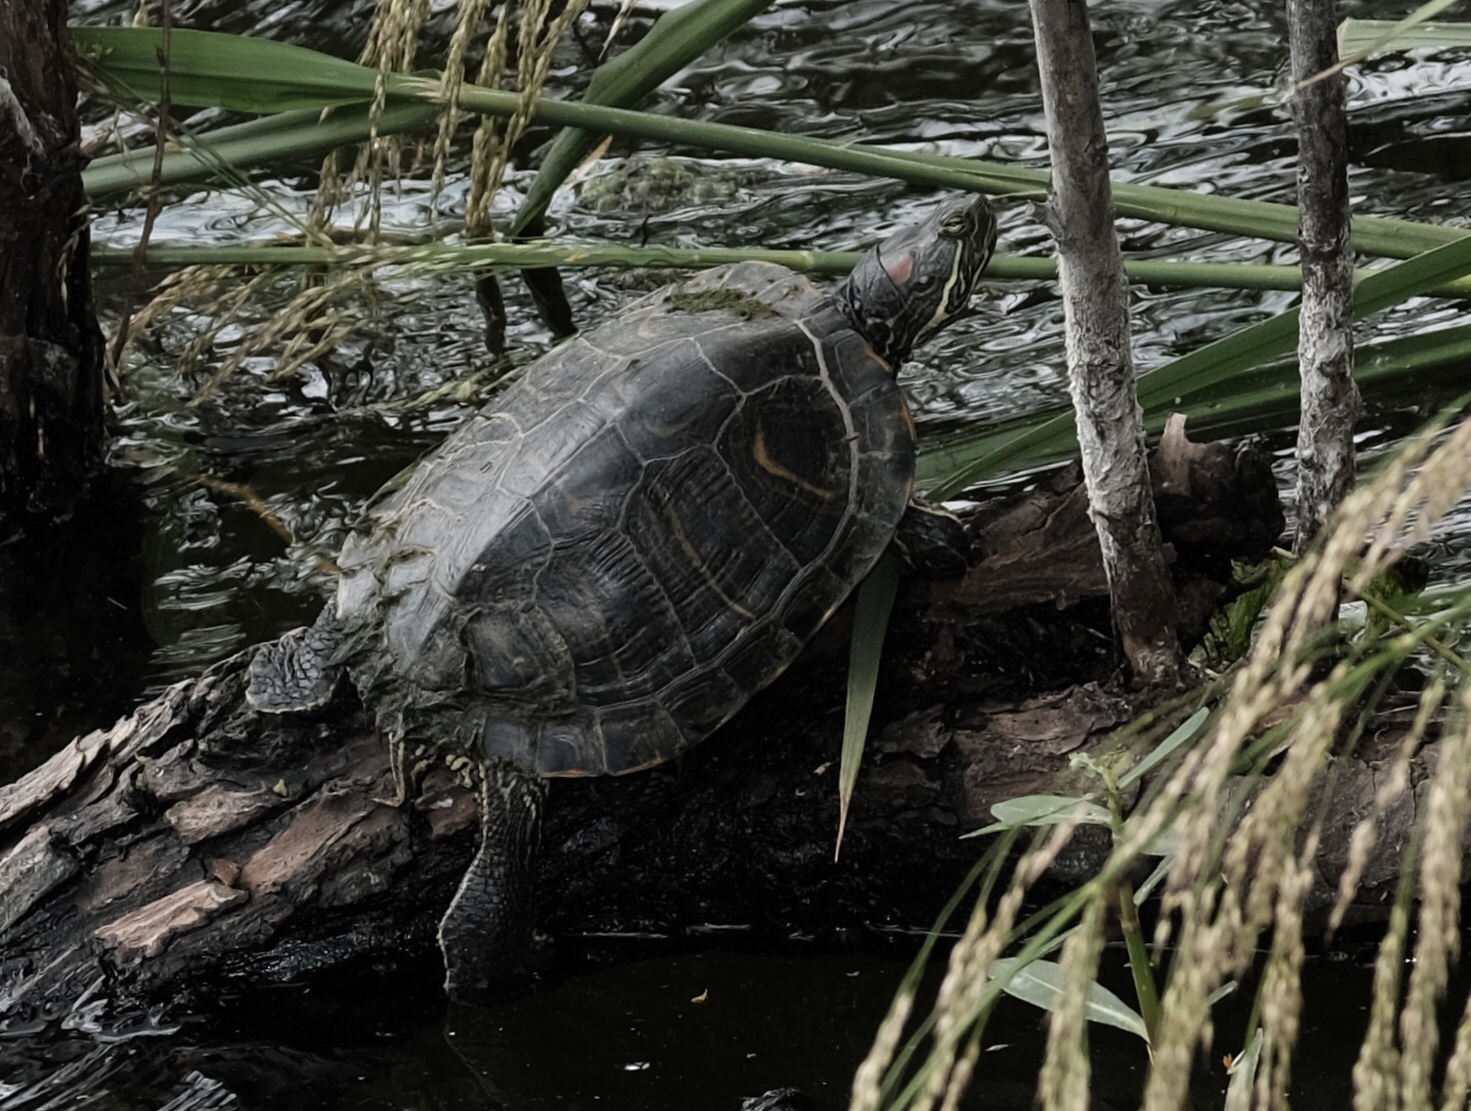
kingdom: Animalia
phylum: Chordata
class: Testudines
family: Emydidae
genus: Trachemys
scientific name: Trachemys scripta
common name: Slider
